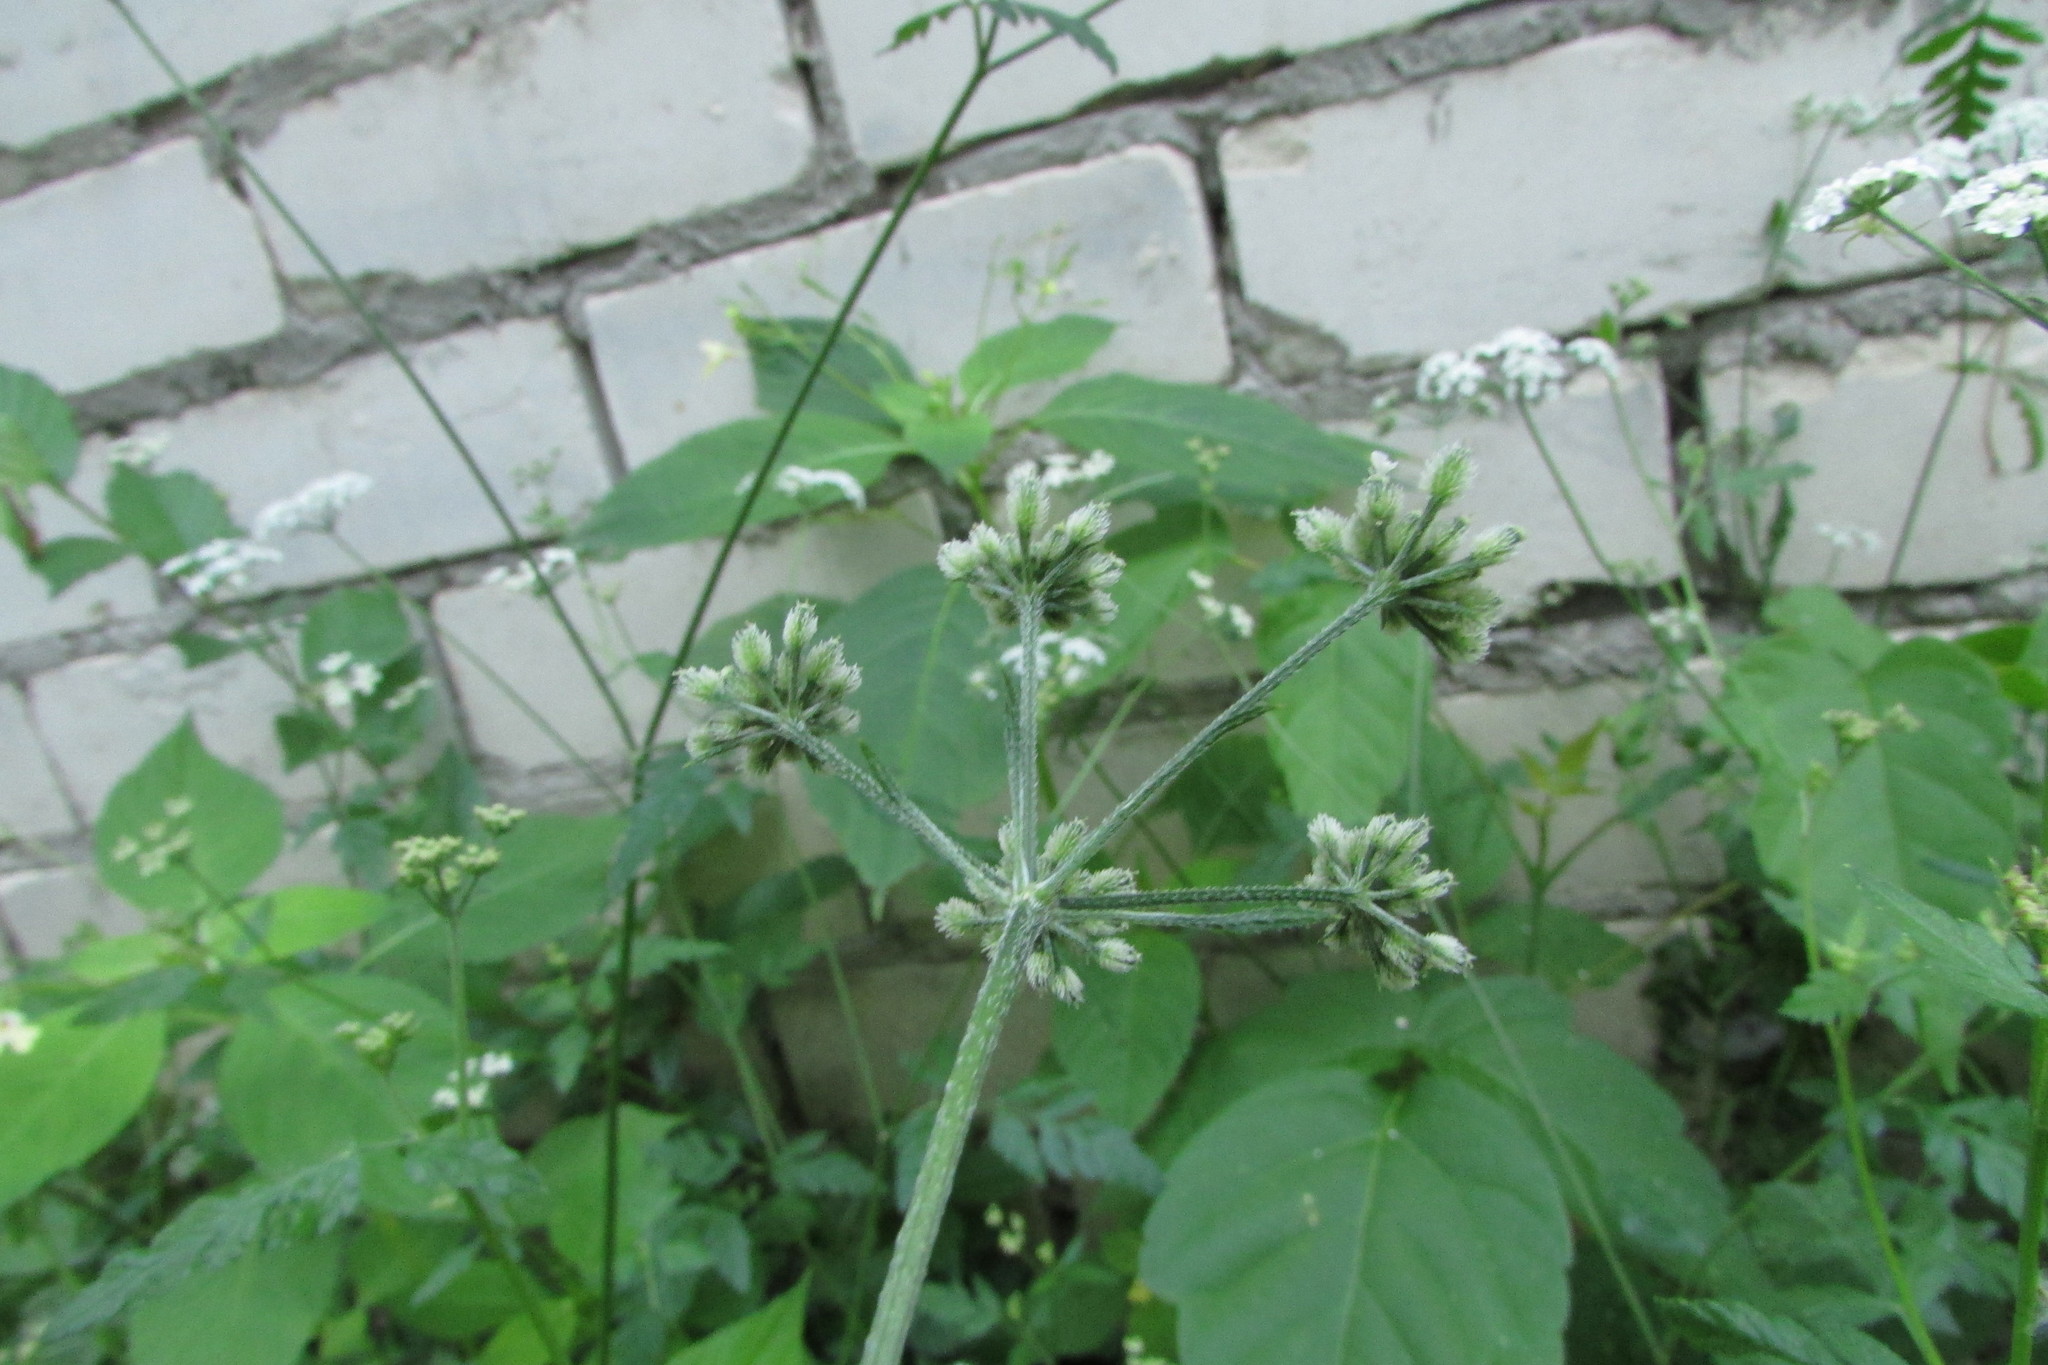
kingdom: Plantae
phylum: Tracheophyta
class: Magnoliopsida
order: Apiales
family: Apiaceae
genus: Torilis
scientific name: Torilis japonica
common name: Upright hedge-parsley
